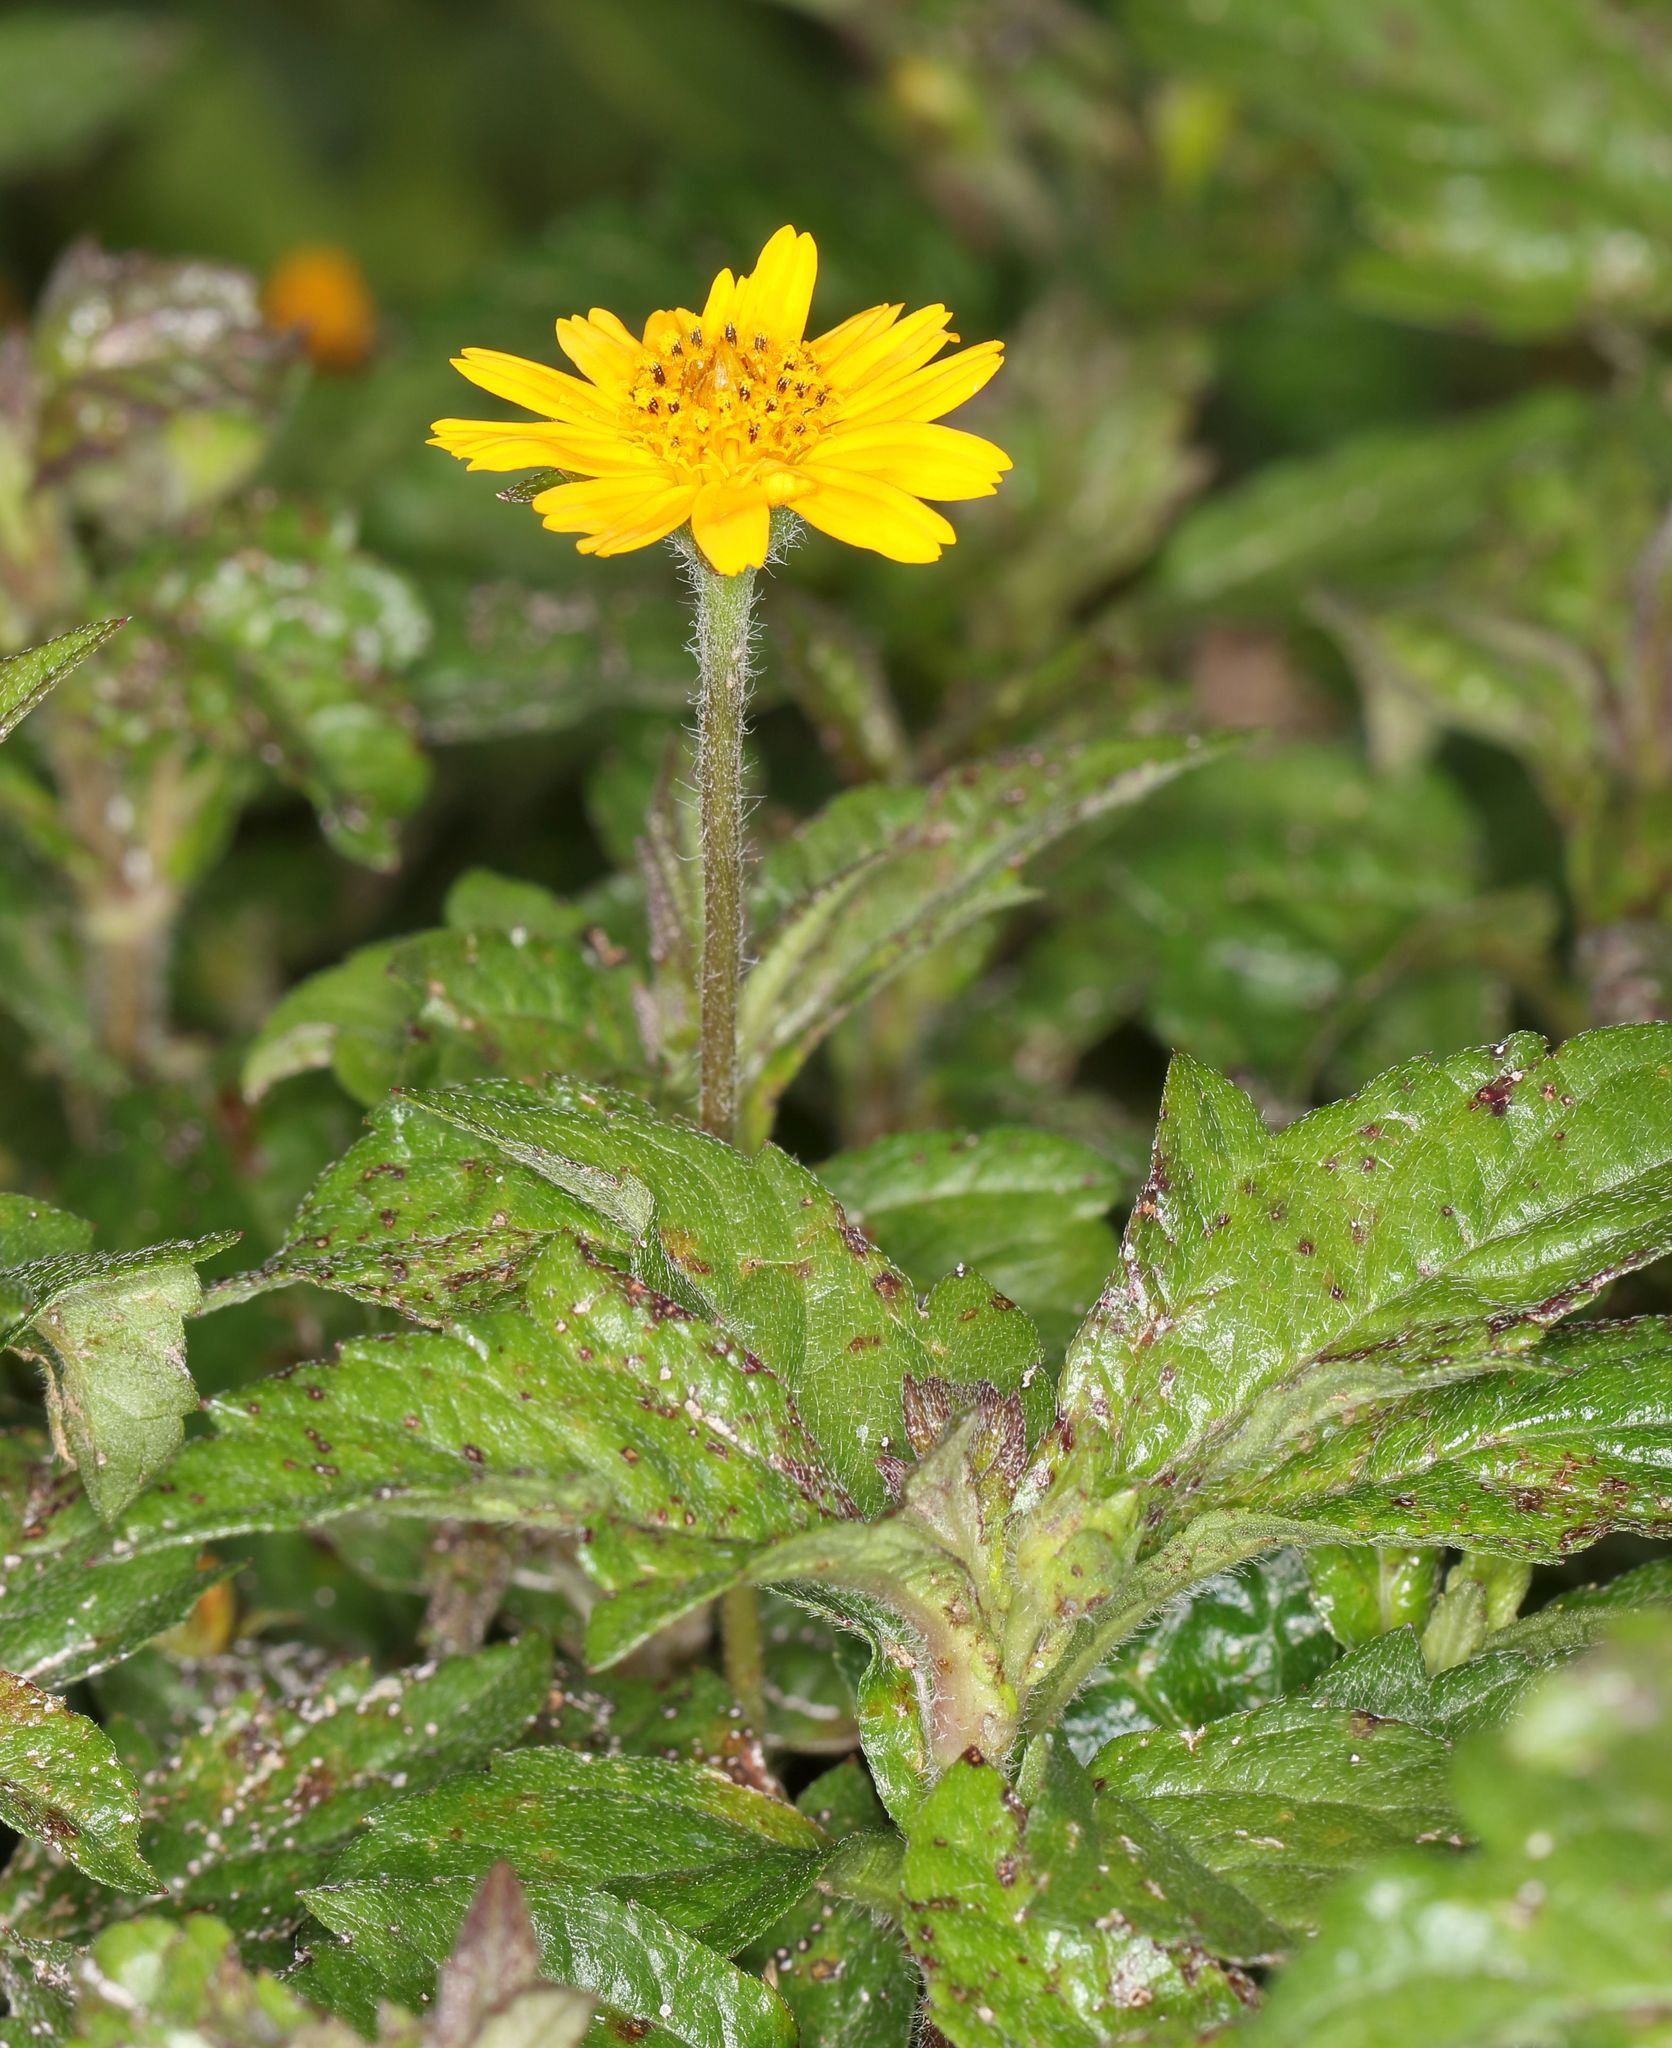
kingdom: Plantae
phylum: Tracheophyta
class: Magnoliopsida
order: Asterales
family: Asteraceae
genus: Sphagneticola
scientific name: Sphagneticola trilobata
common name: Bay biscayne creeping-oxeye
